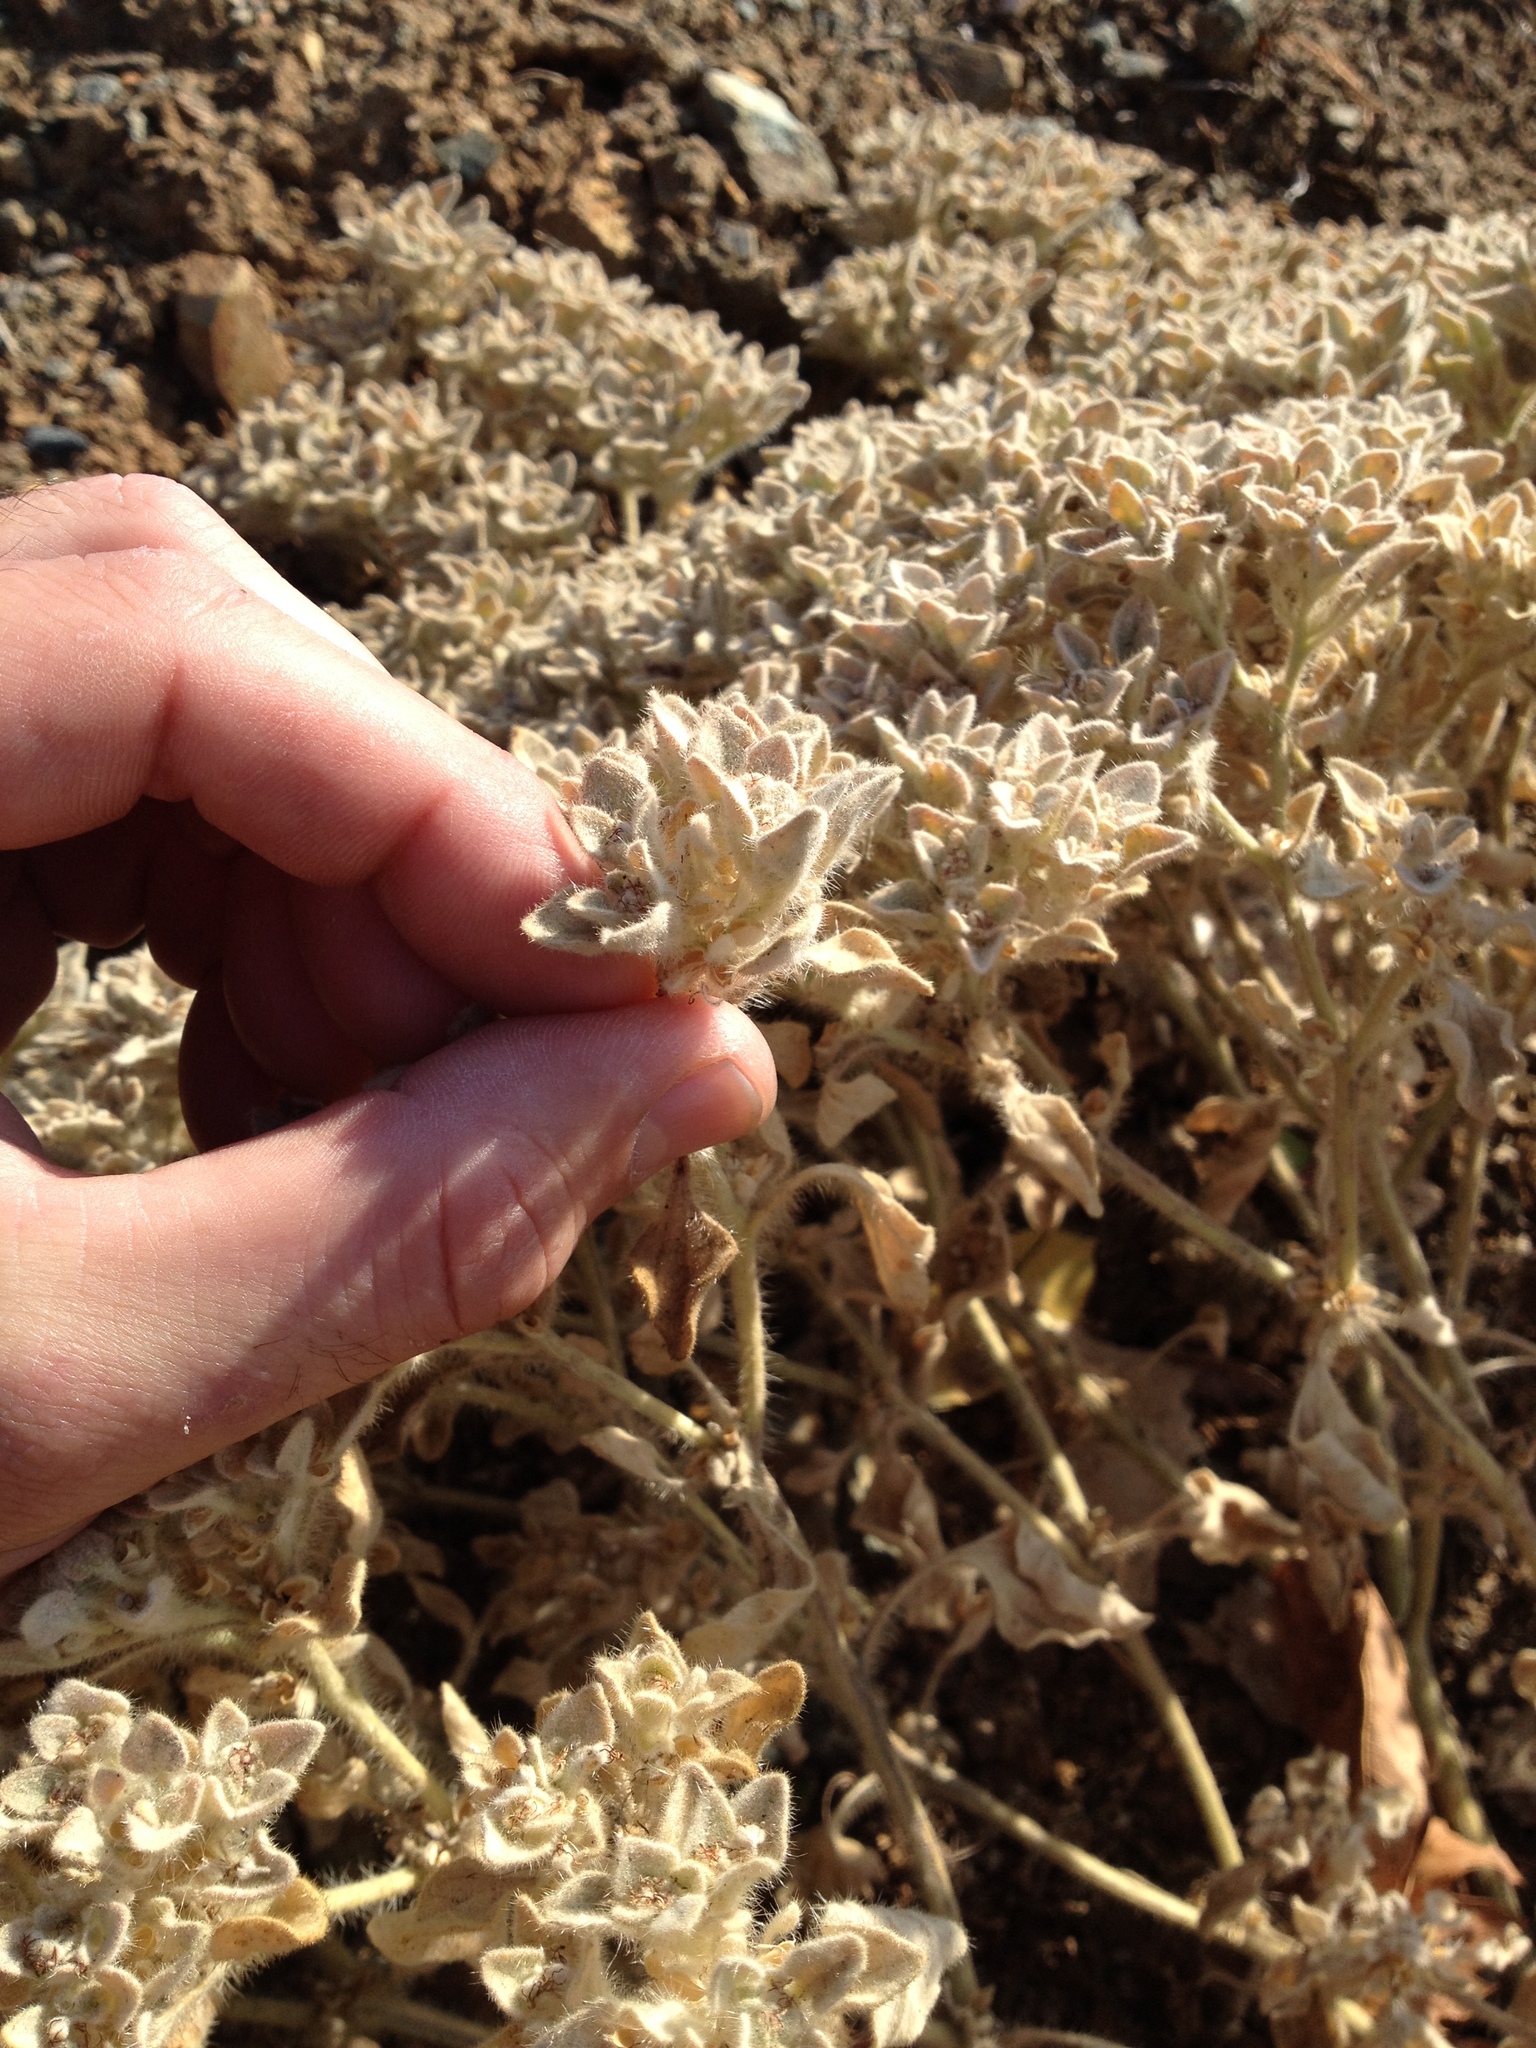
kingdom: Plantae
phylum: Tracheophyta
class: Magnoliopsida
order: Malpighiales
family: Euphorbiaceae
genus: Croton
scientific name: Croton setiger
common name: Dove weed
